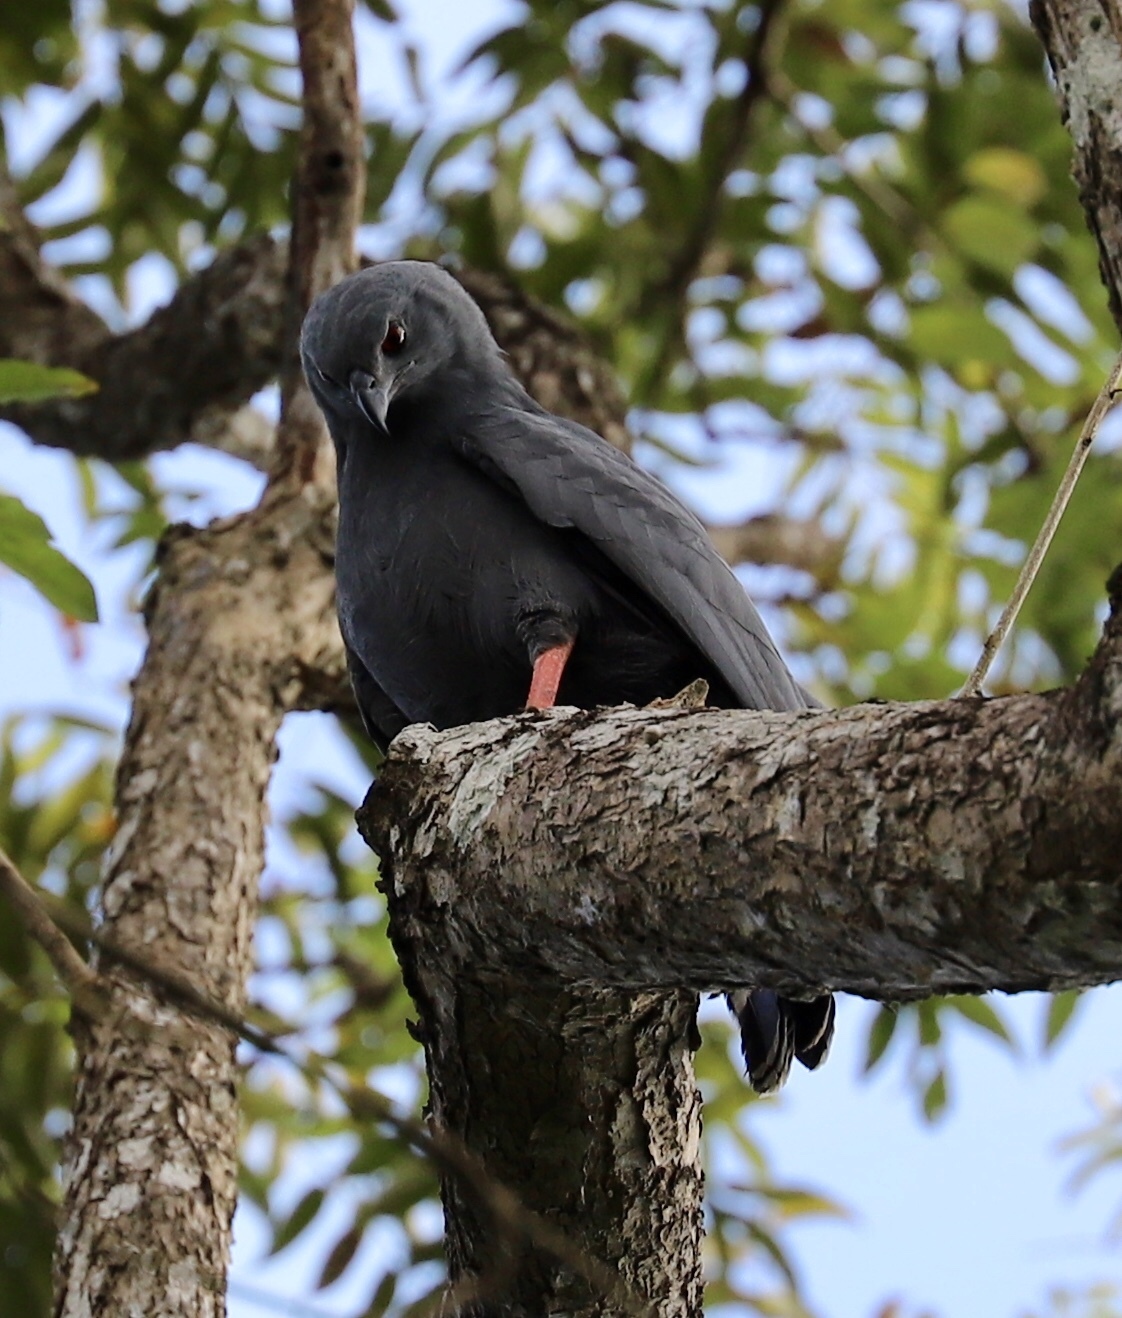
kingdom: Animalia
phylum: Chordata
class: Aves
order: Accipitriformes
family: Accipitridae
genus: Geranospiza
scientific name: Geranospiza caerulescens
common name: Crane hawk
